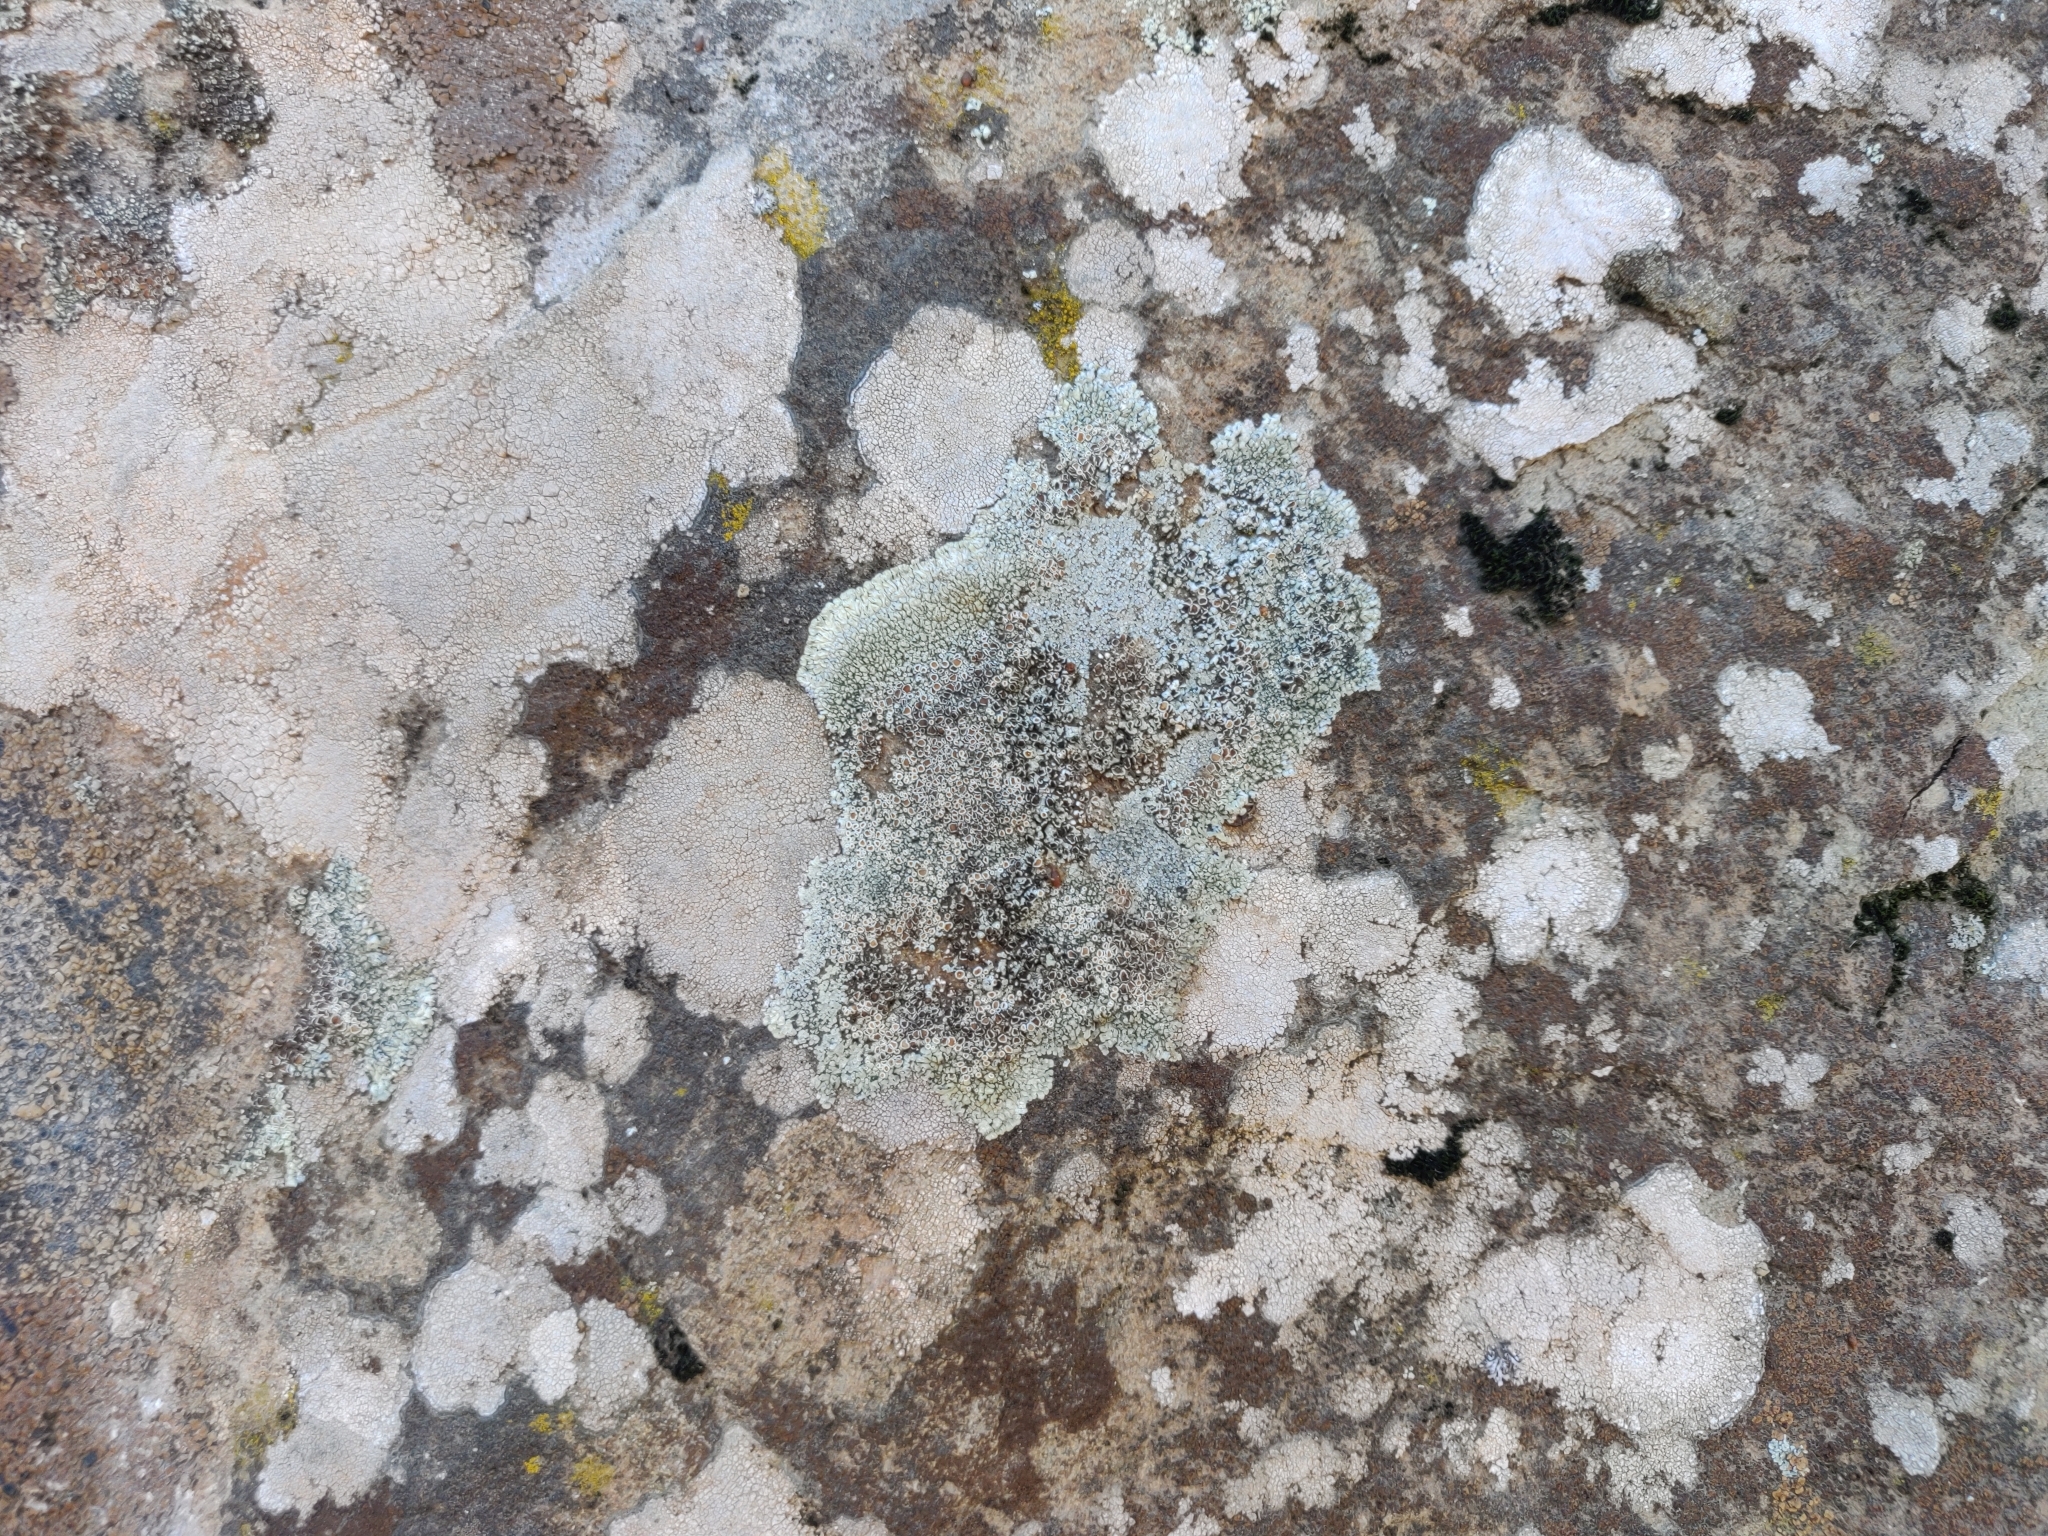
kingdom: Fungi
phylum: Ascomycota
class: Lecanoromycetes
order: Lecanorales
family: Lecanoraceae
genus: Protoparmeliopsis
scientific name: Protoparmeliopsis muralis
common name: Stonewall rim lichen
